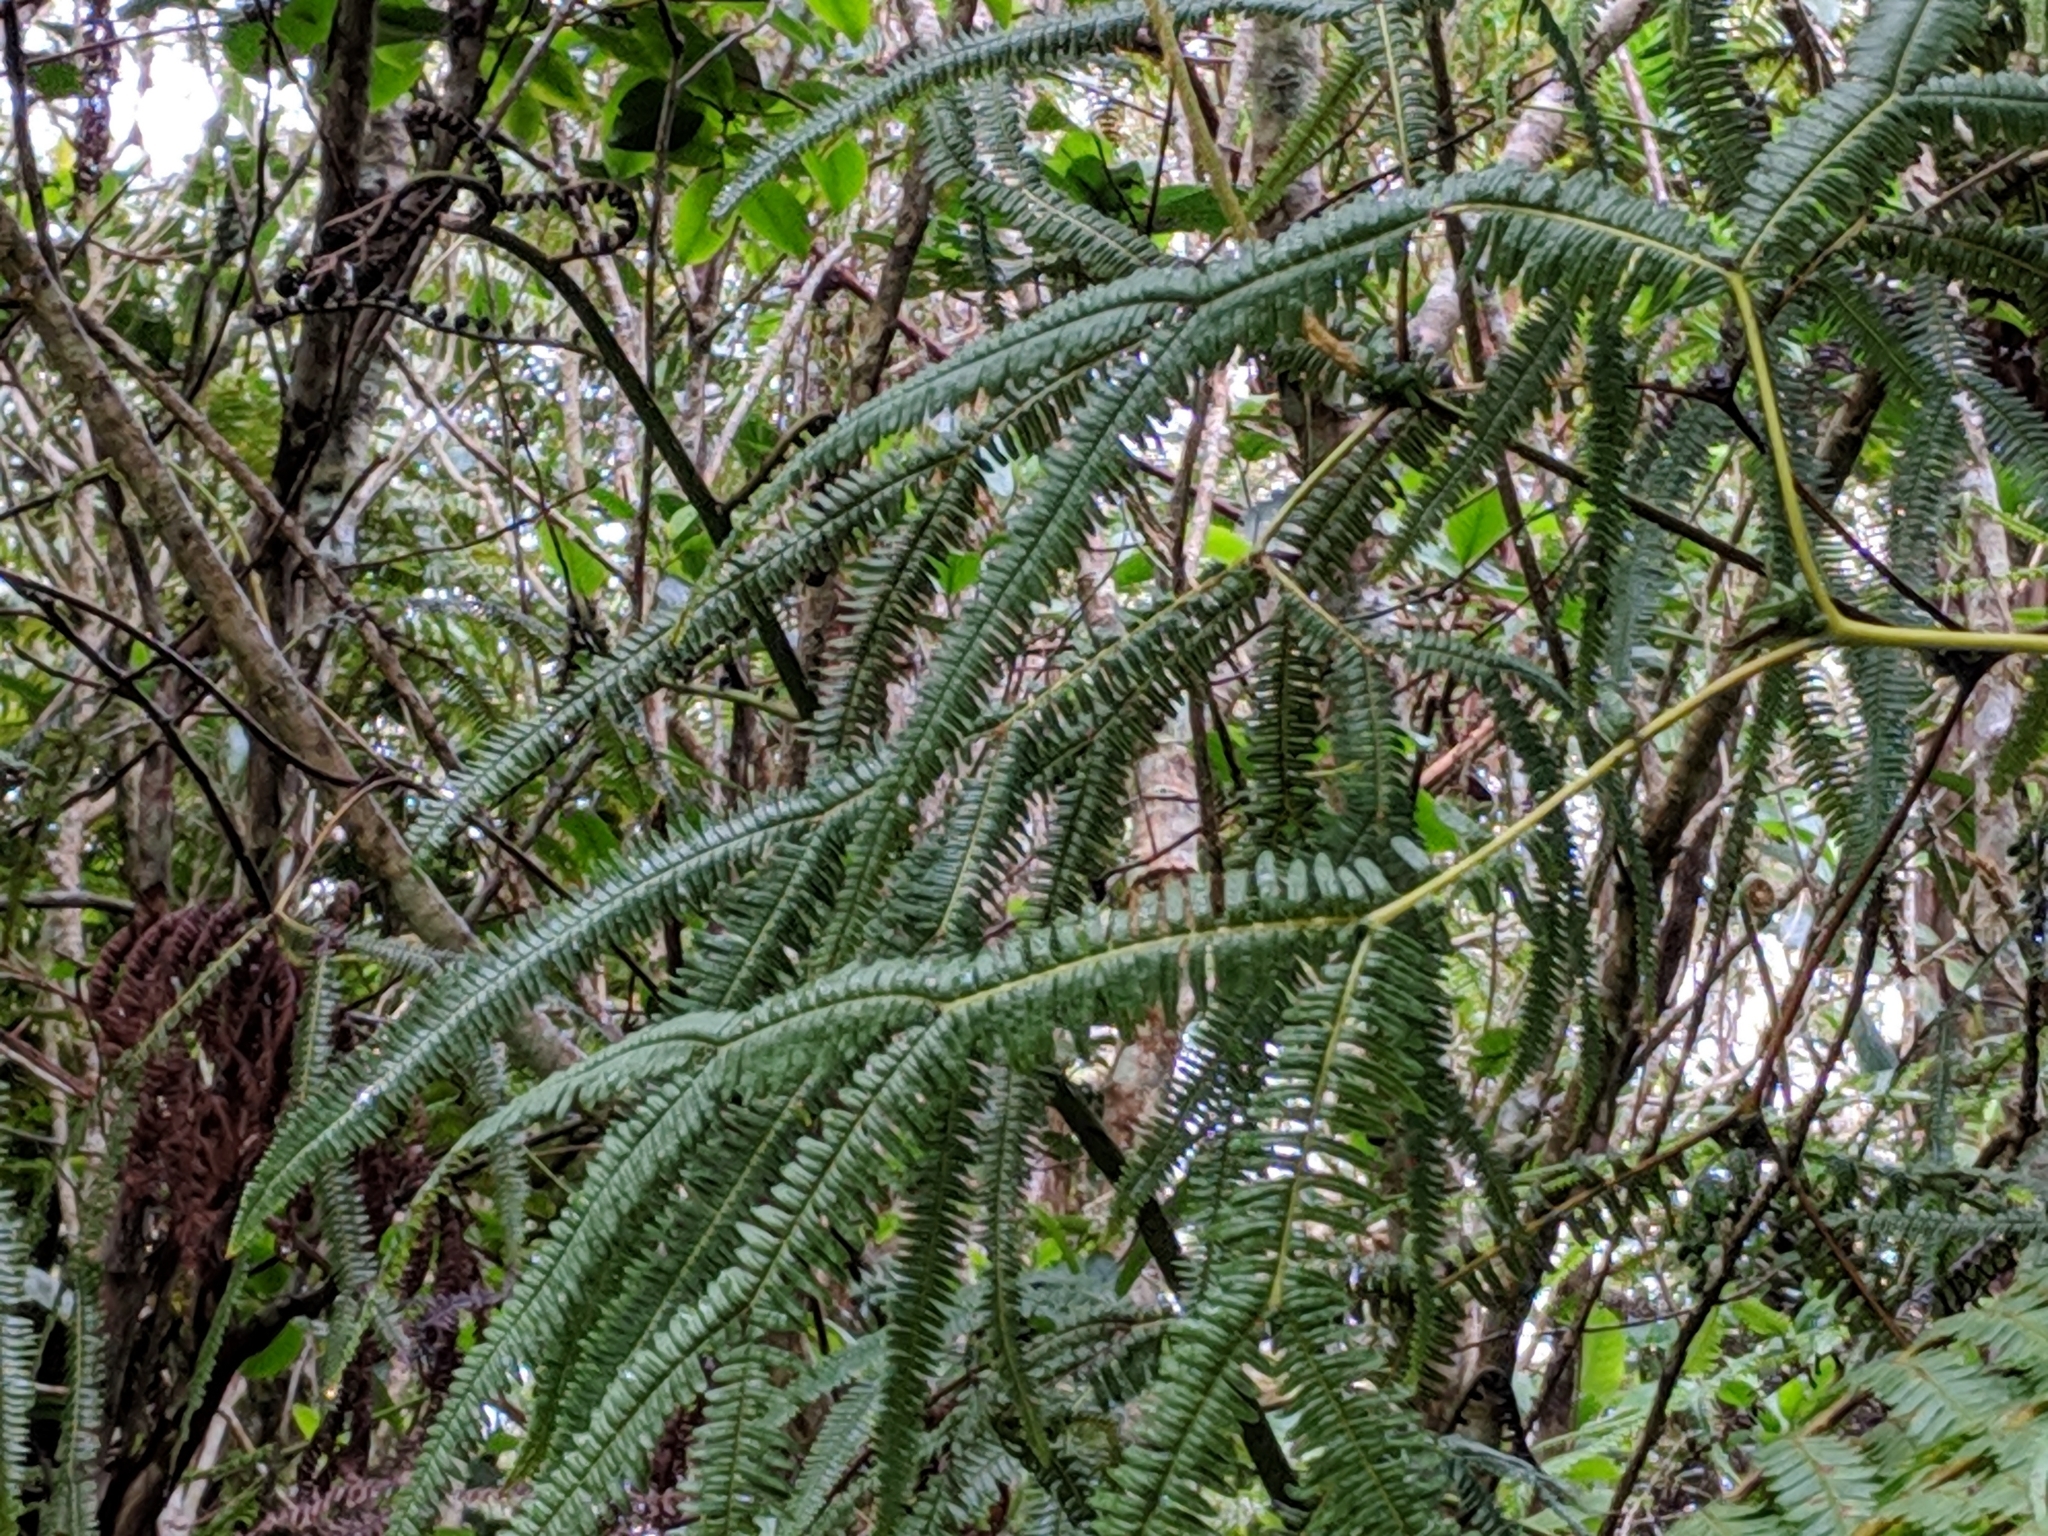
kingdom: Plantae
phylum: Tracheophyta
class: Polypodiopsida
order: Gleicheniales
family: Gleicheniaceae
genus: Sticherus
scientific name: Sticherus flagellaris
